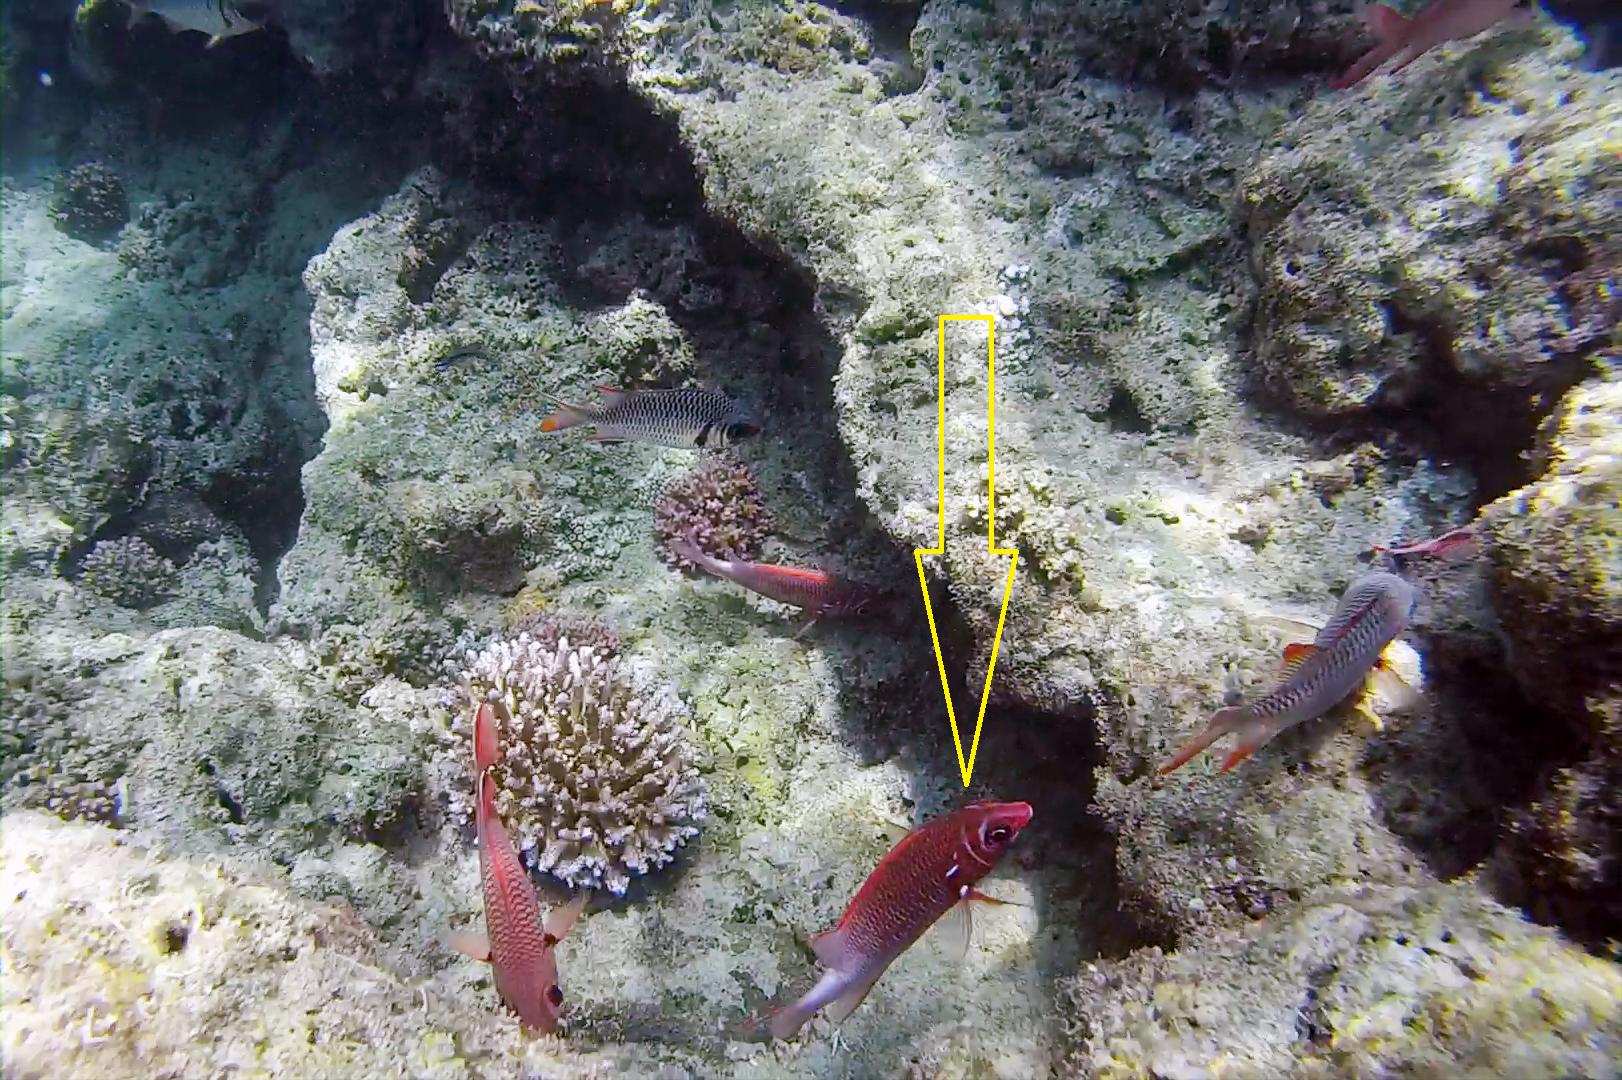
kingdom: Animalia
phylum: Chordata
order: Beryciformes
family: Holocentridae
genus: Sargocentron
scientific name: Sargocentron caudimaculatum
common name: Fanfin soldier
